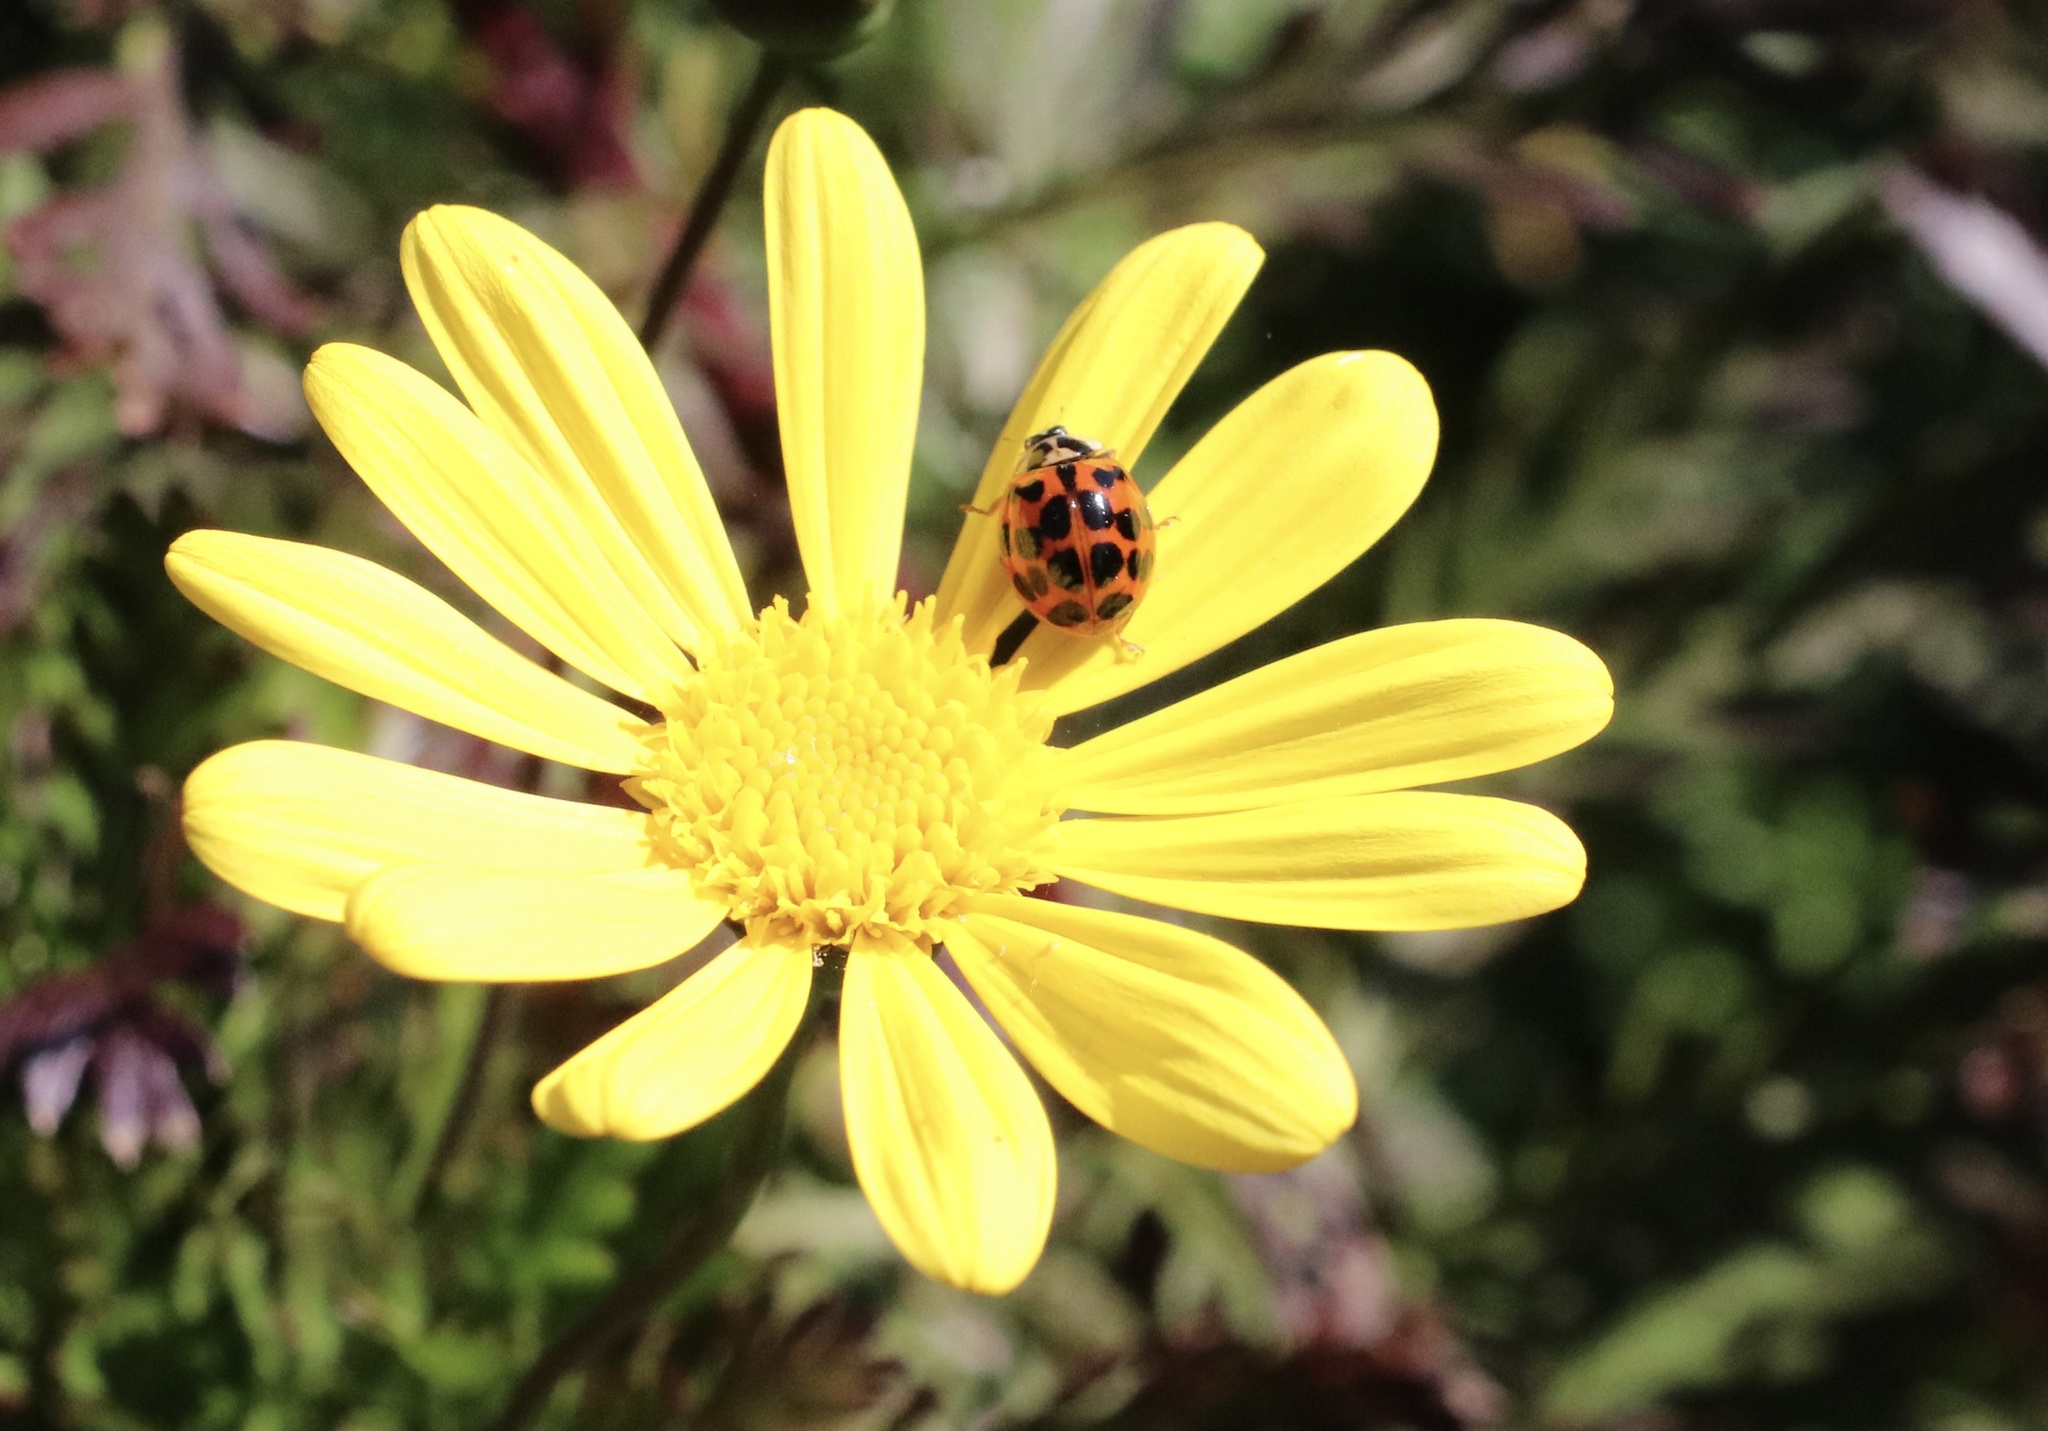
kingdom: Animalia
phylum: Arthropoda
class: Insecta
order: Coleoptera
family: Coccinellidae
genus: Harmonia
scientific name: Harmonia axyridis
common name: Harlequin ladybird
